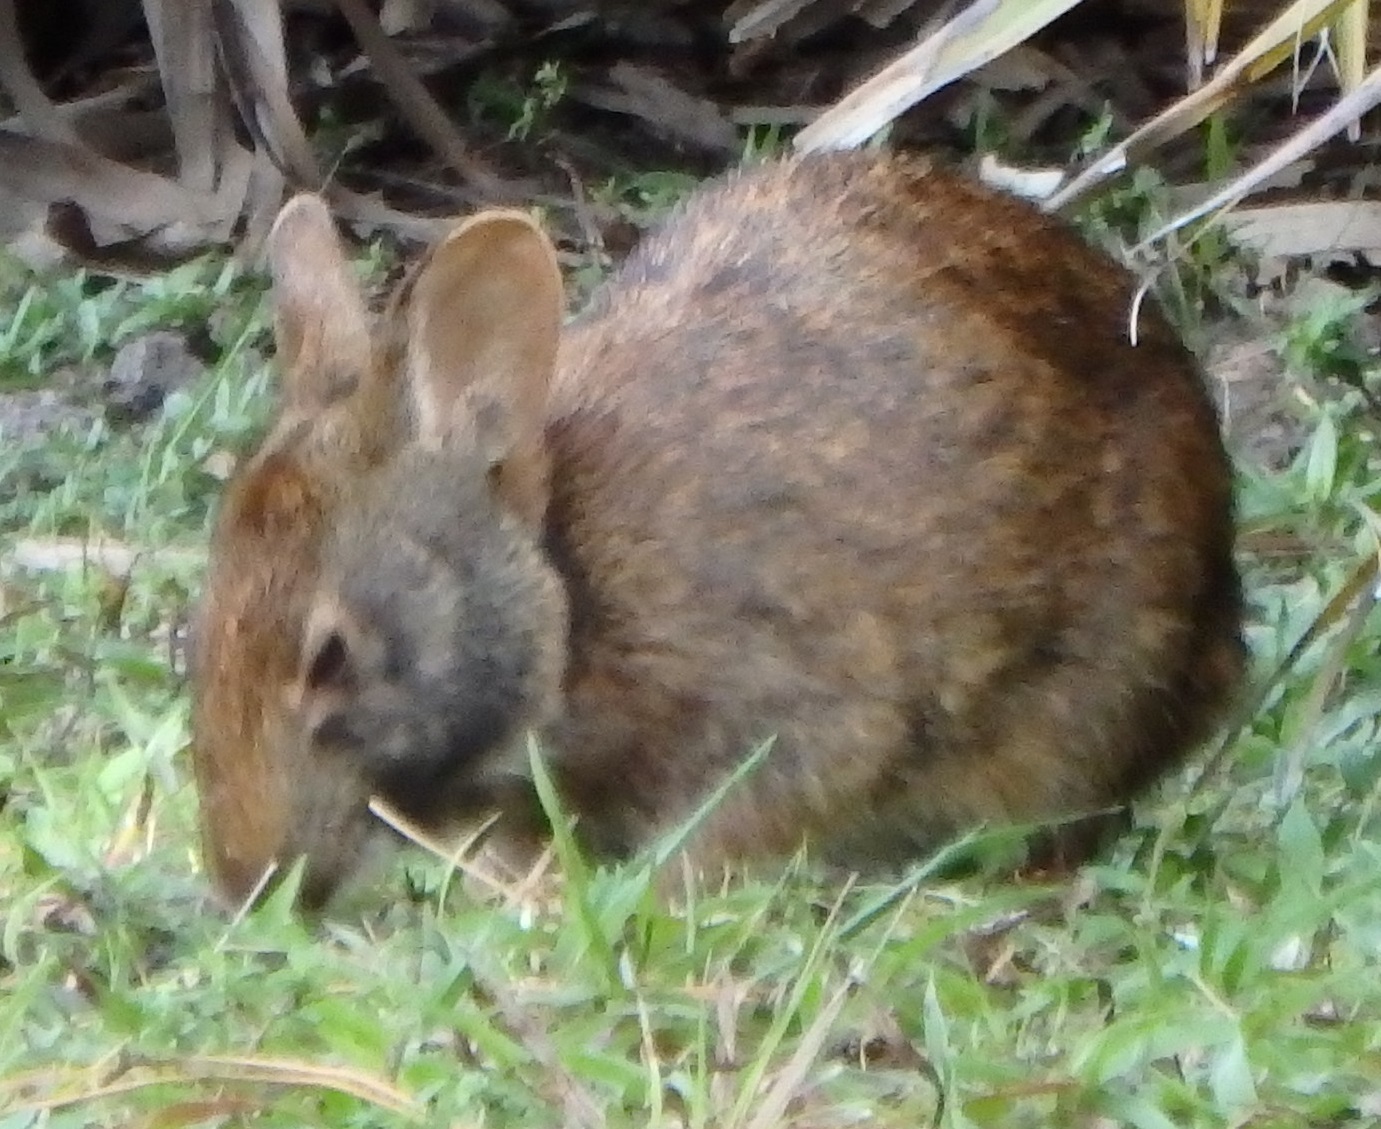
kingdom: Animalia
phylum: Chordata
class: Mammalia
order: Lagomorpha
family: Leporidae
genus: Sylvilagus
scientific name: Sylvilagus palustris
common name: Marsh rabbit
